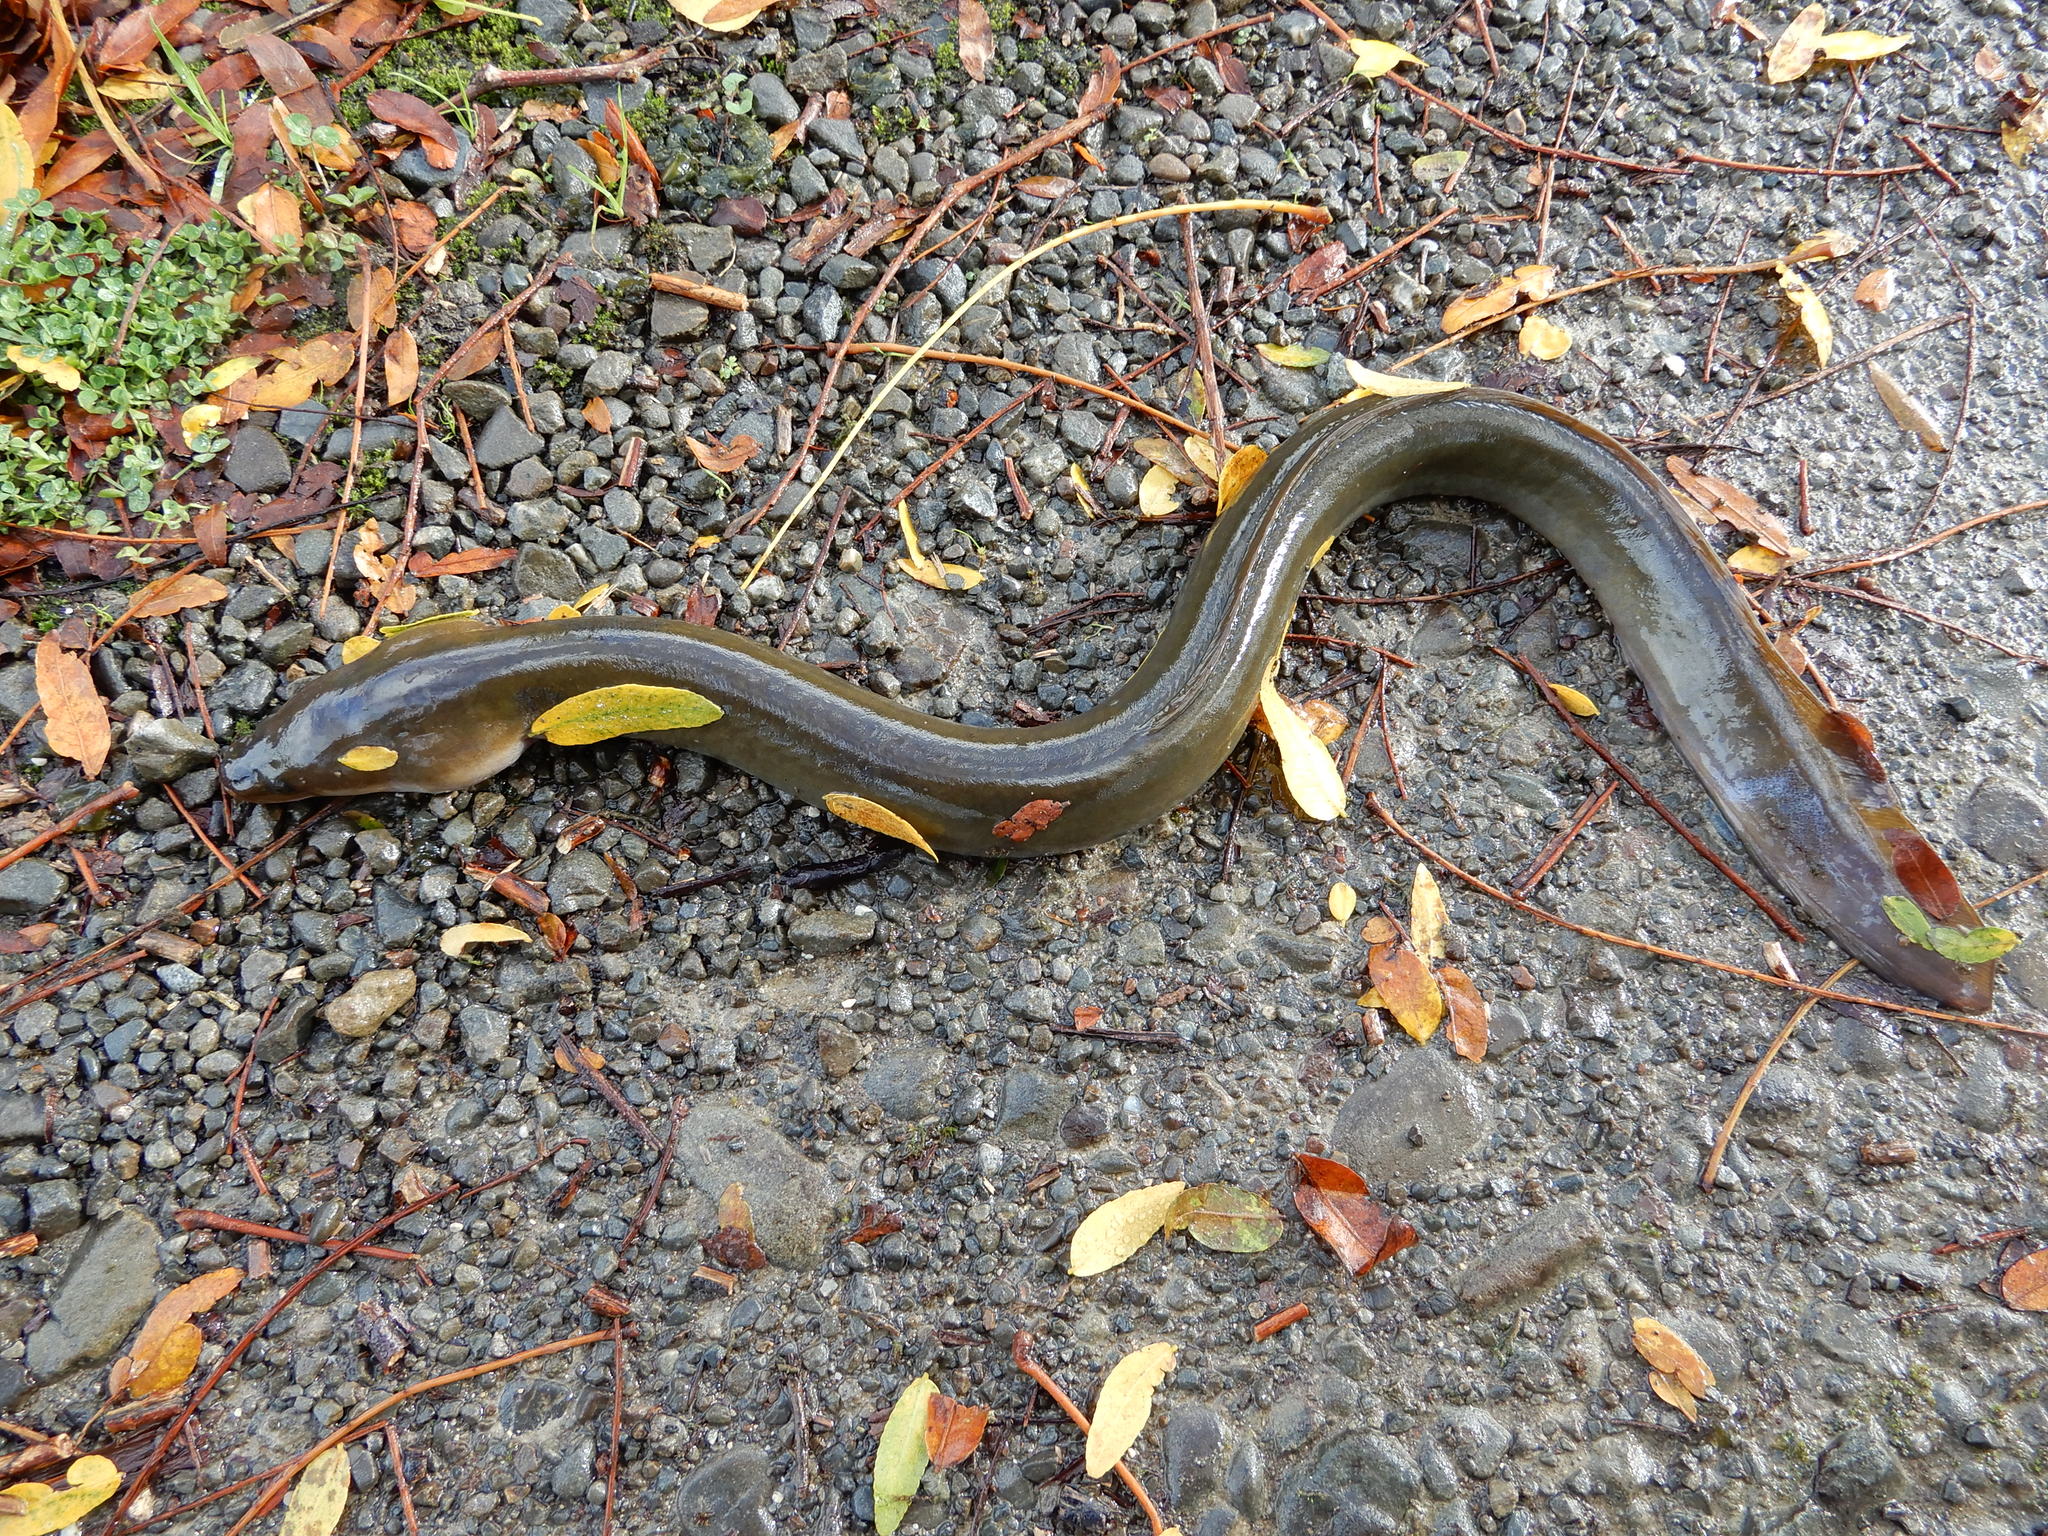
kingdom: Animalia
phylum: Chordata
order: Anguilliformes
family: Anguillidae
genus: Anguilla
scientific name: Anguilla australis
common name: Shortfin eel
